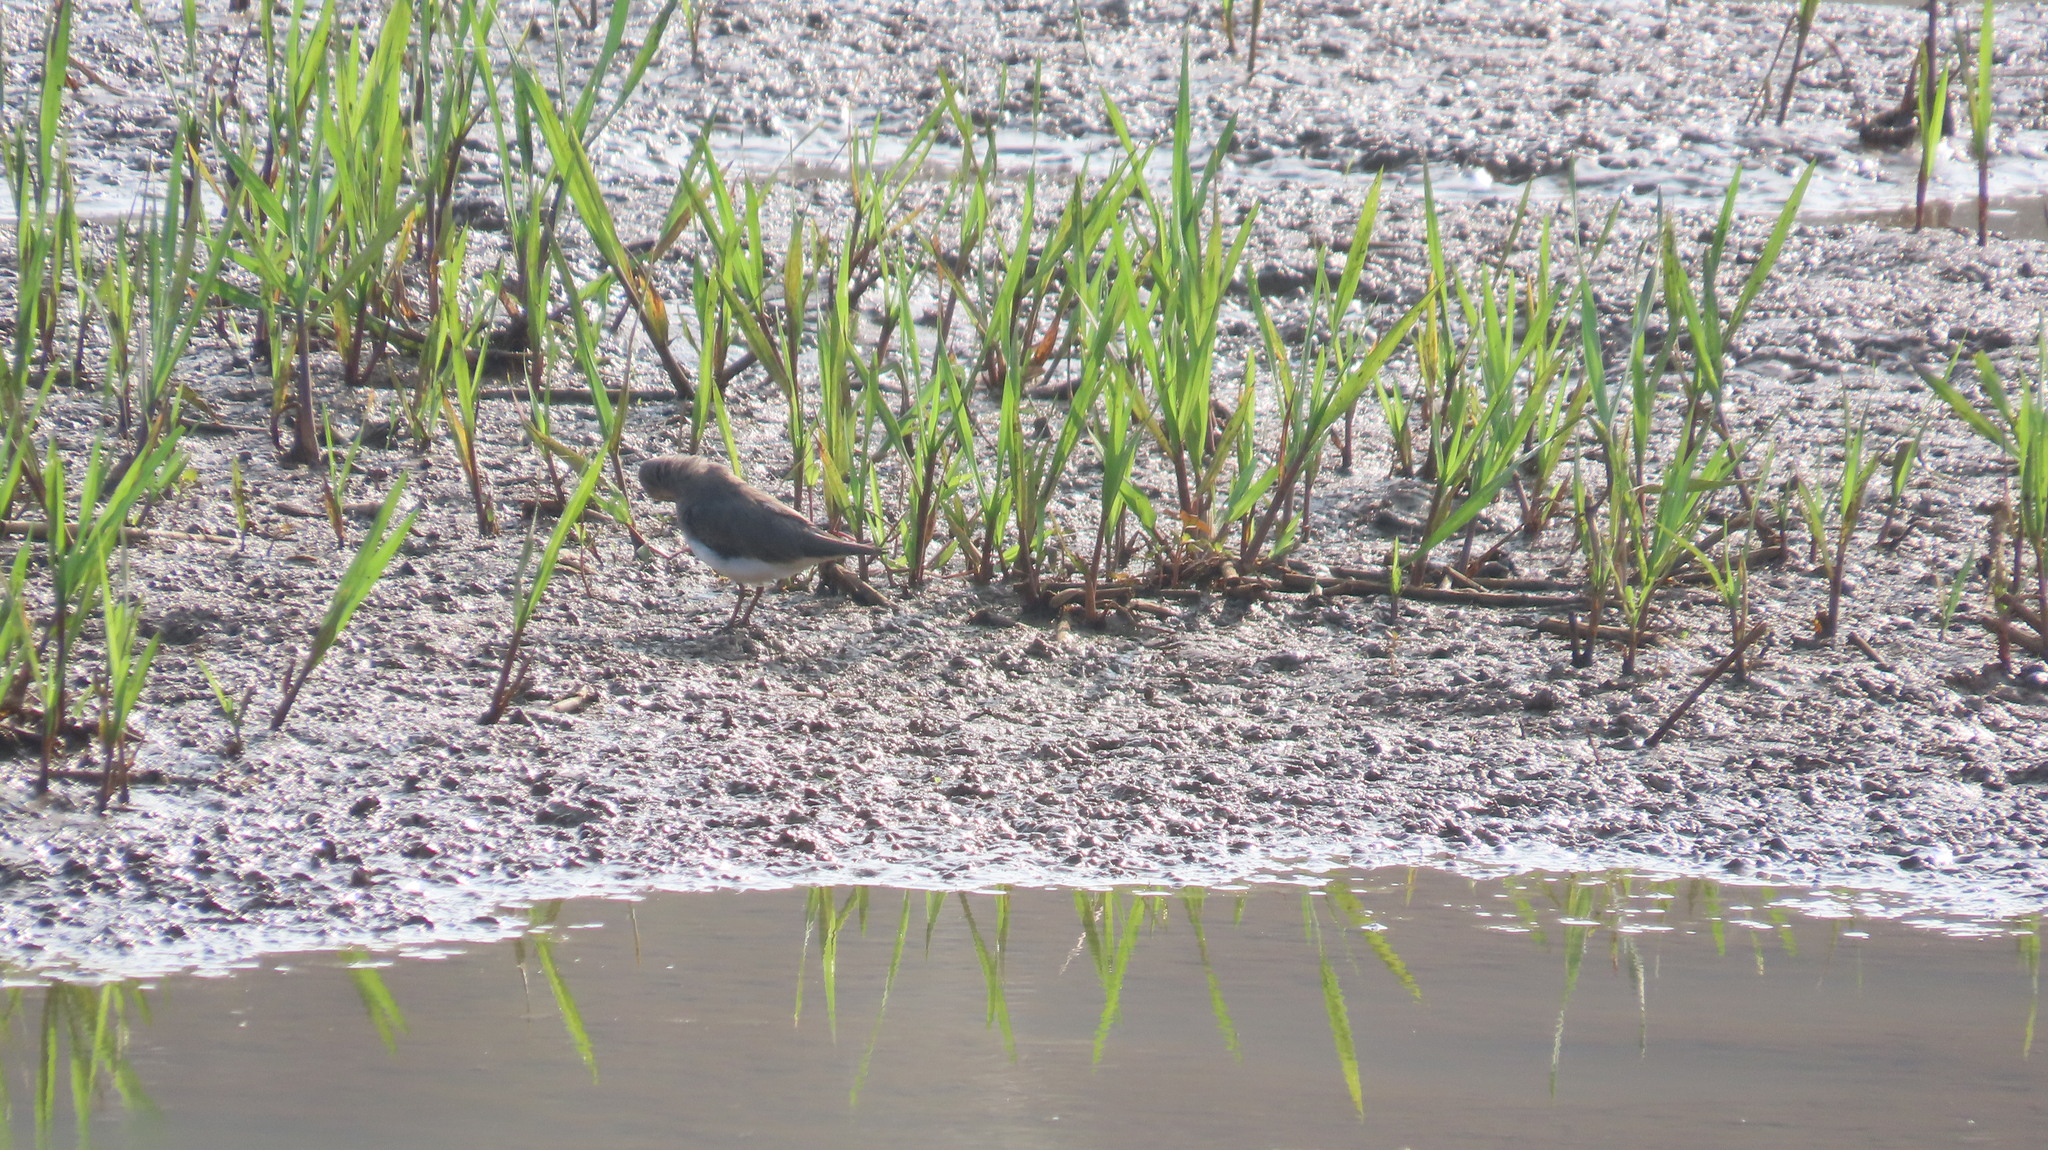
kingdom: Animalia
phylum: Chordata
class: Aves
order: Charadriiformes
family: Scolopacidae
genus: Calidris
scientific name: Calidris temminckii
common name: Temminck's stint
